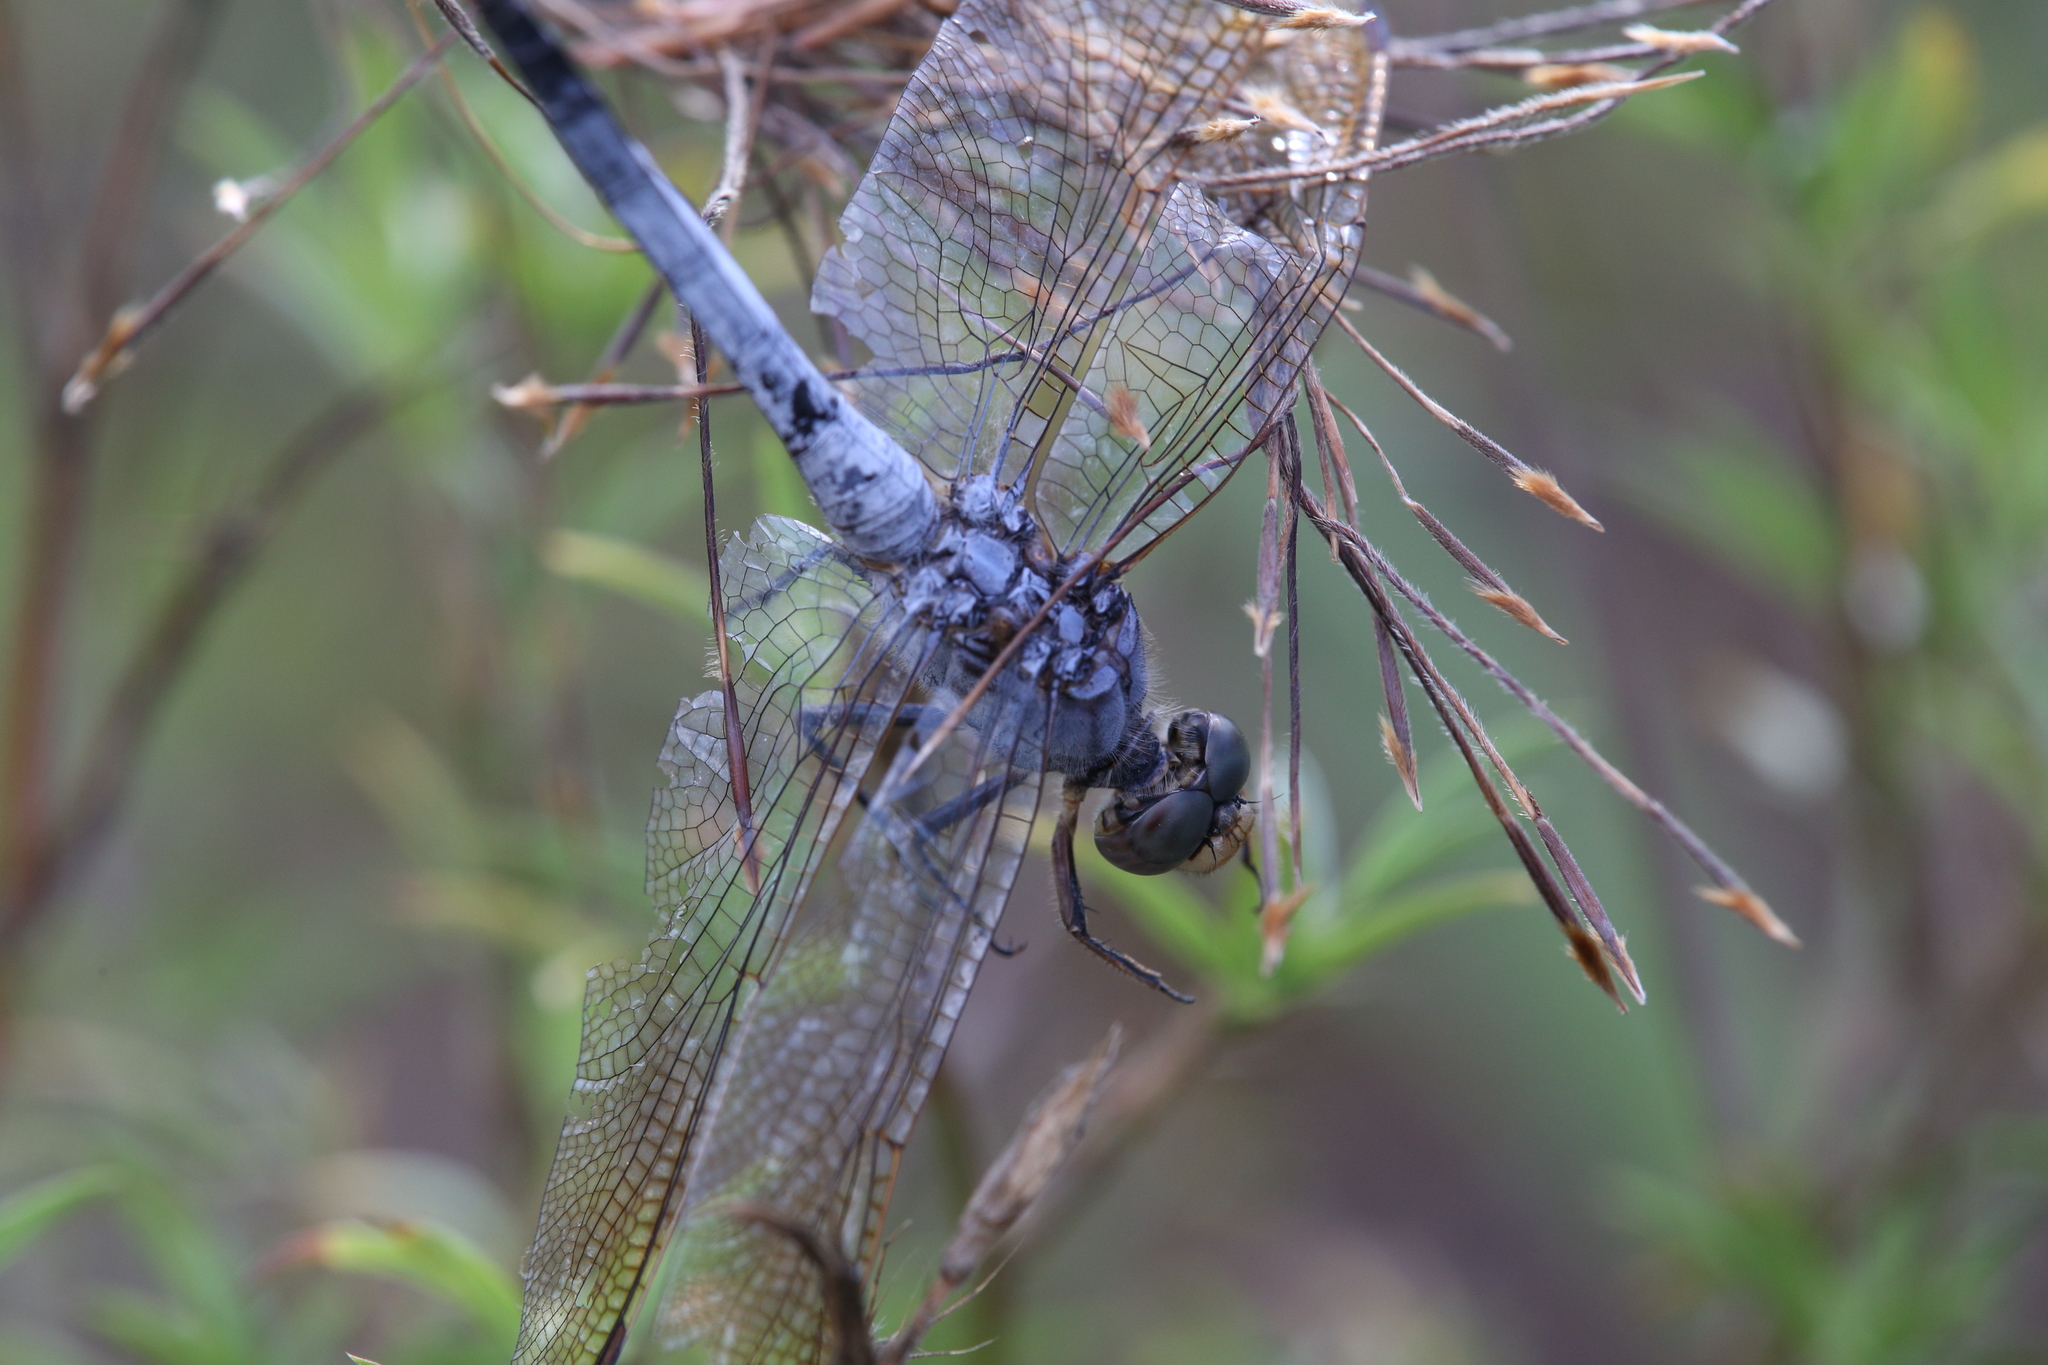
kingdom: Animalia
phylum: Arthropoda
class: Insecta
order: Odonata
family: Libellulidae
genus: Orthetrum
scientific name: Orthetrum caledonicum
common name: Blue skimmer
